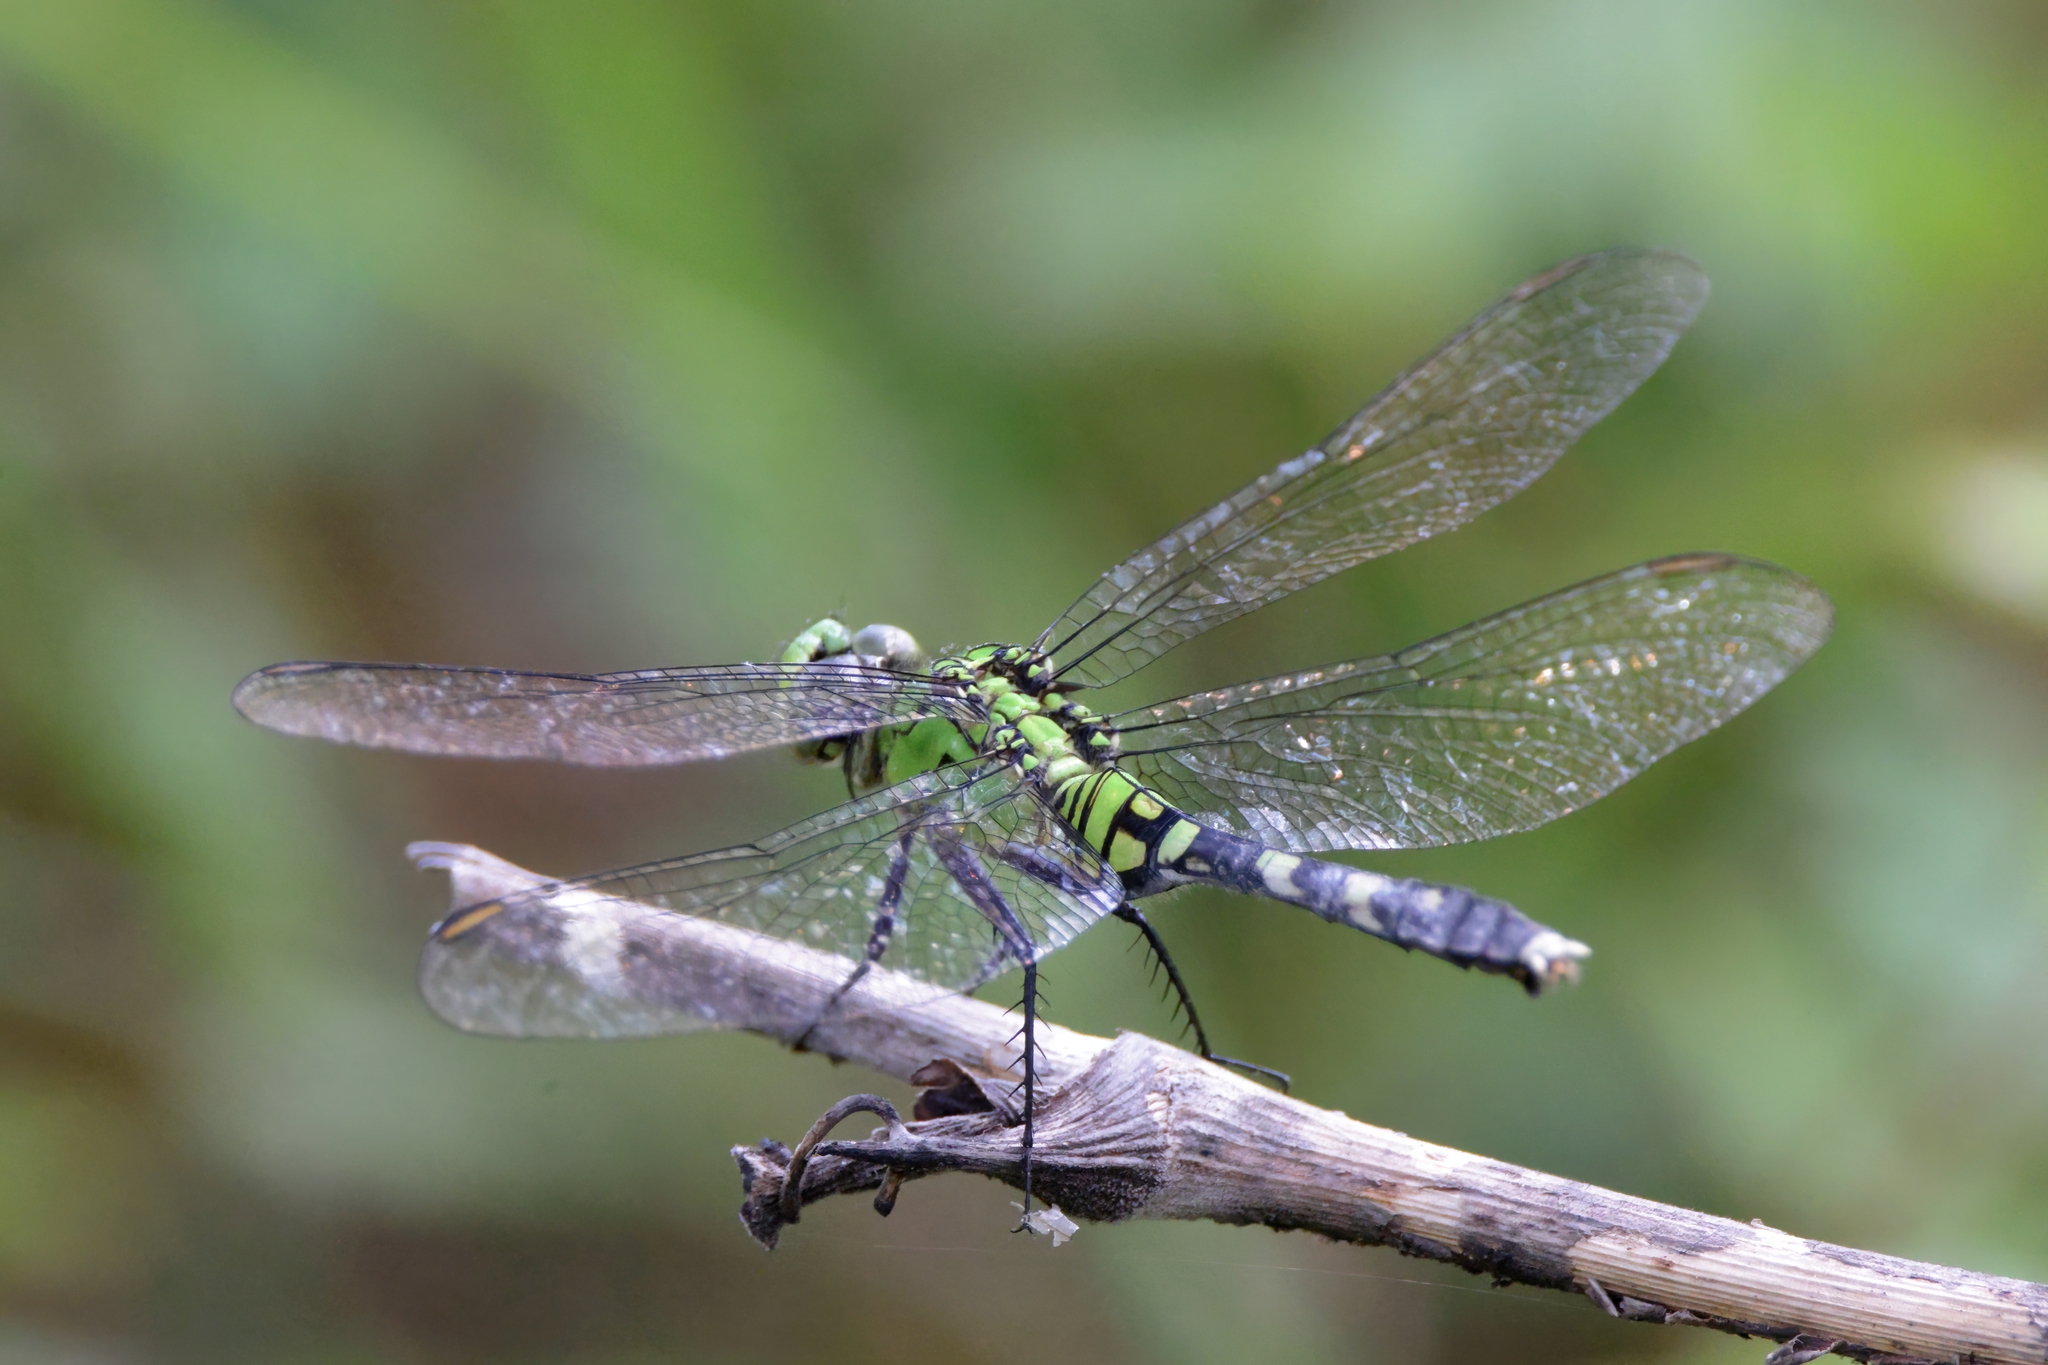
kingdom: Animalia
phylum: Arthropoda
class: Insecta
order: Odonata
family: Libellulidae
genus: Erythemis
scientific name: Erythemis simplicicollis
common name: Eastern pondhawk
